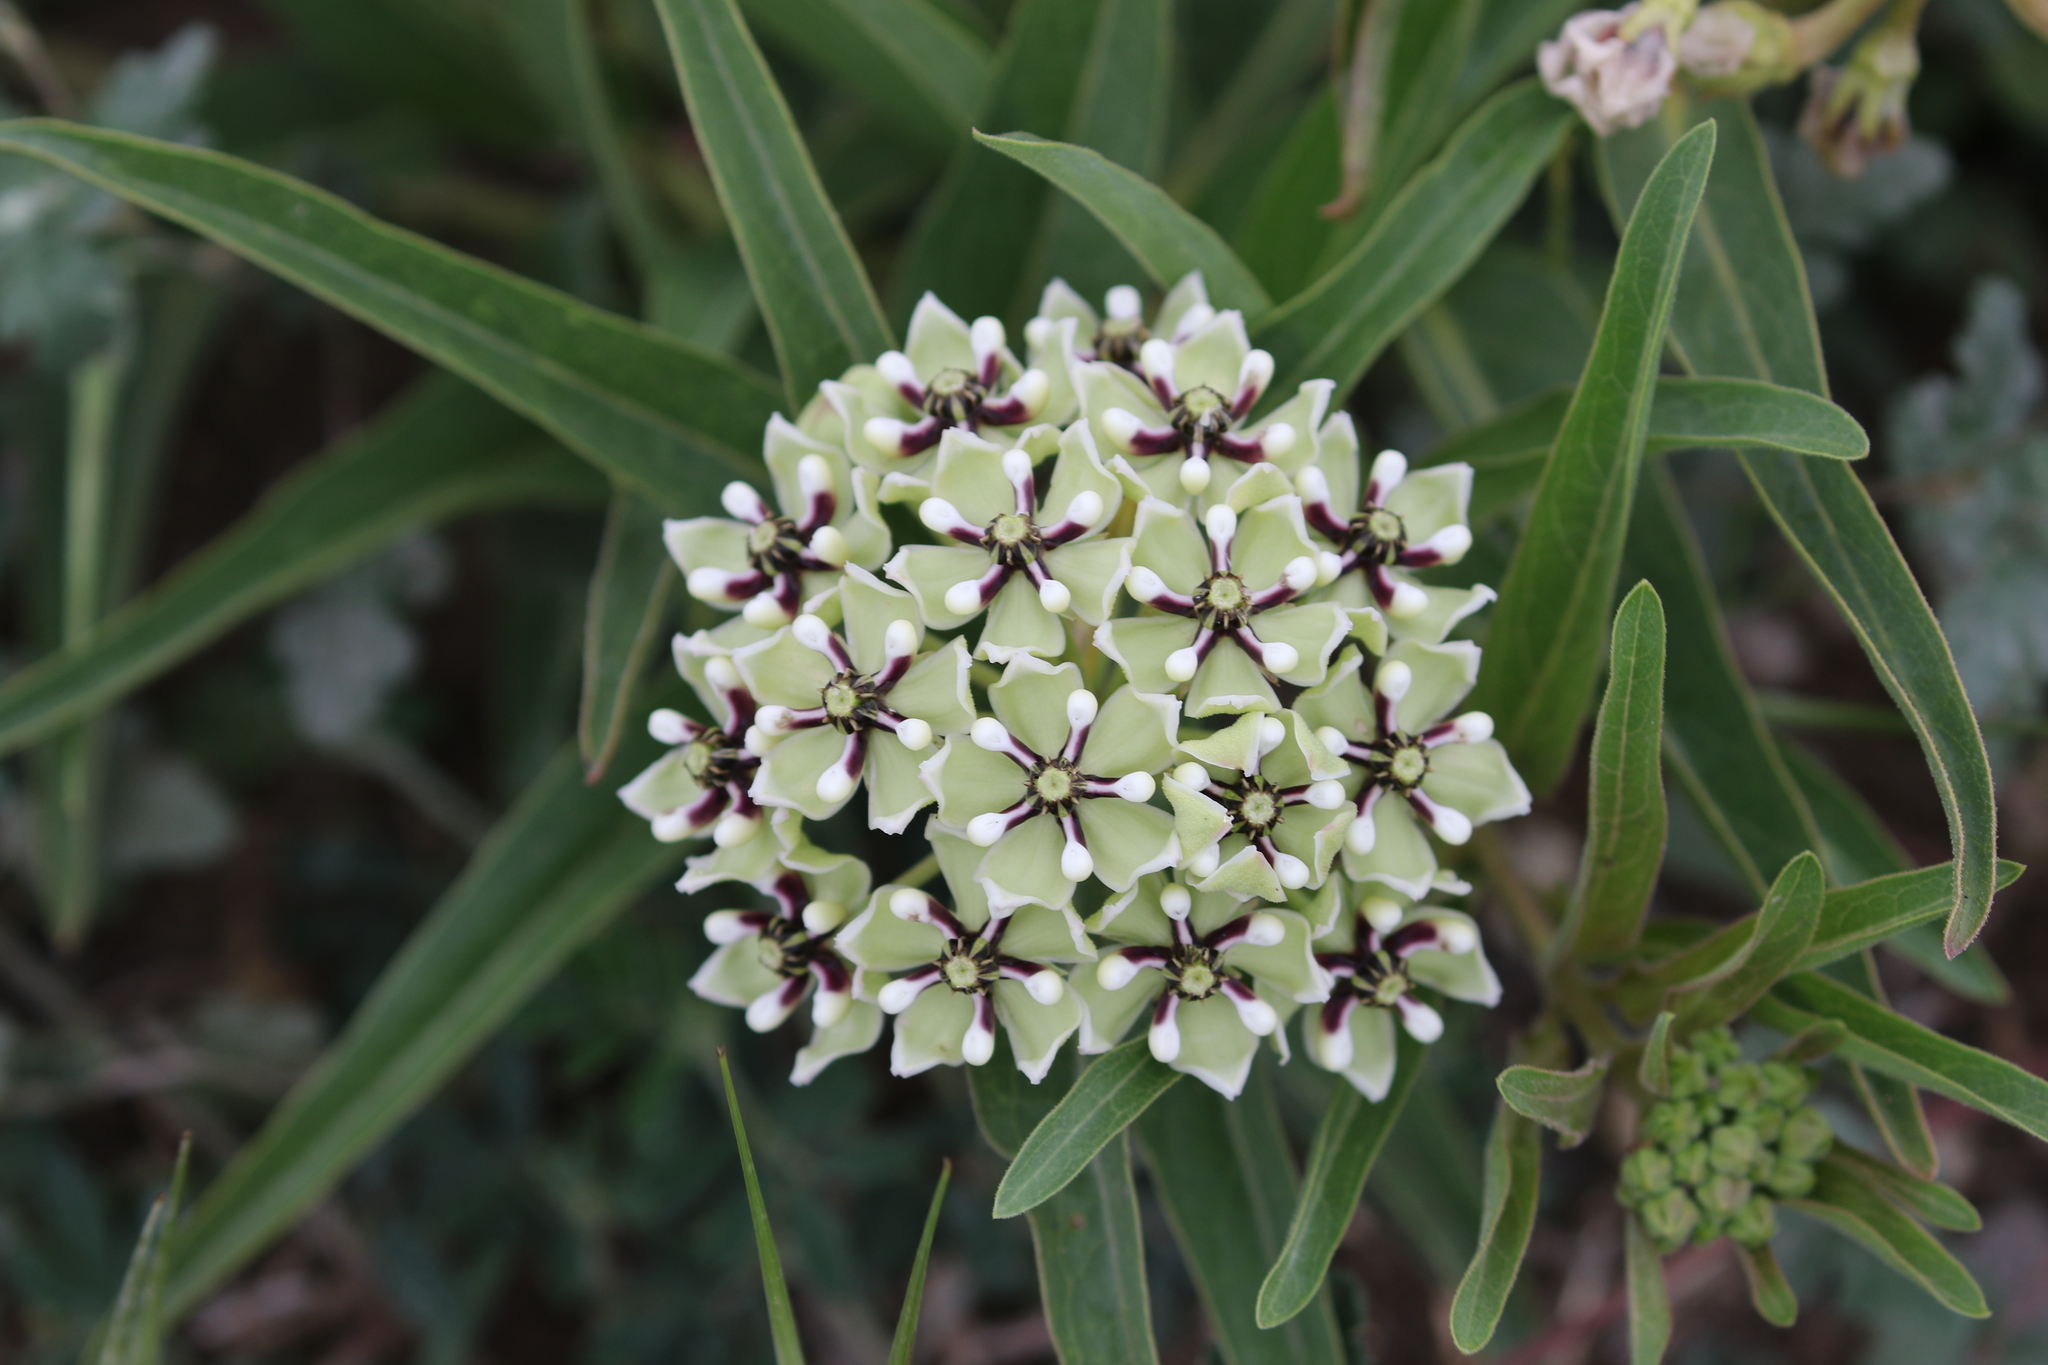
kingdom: Plantae
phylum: Tracheophyta
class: Magnoliopsida
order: Gentianales
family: Apocynaceae
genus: Asclepias
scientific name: Asclepias asperula
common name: Antelope horns
